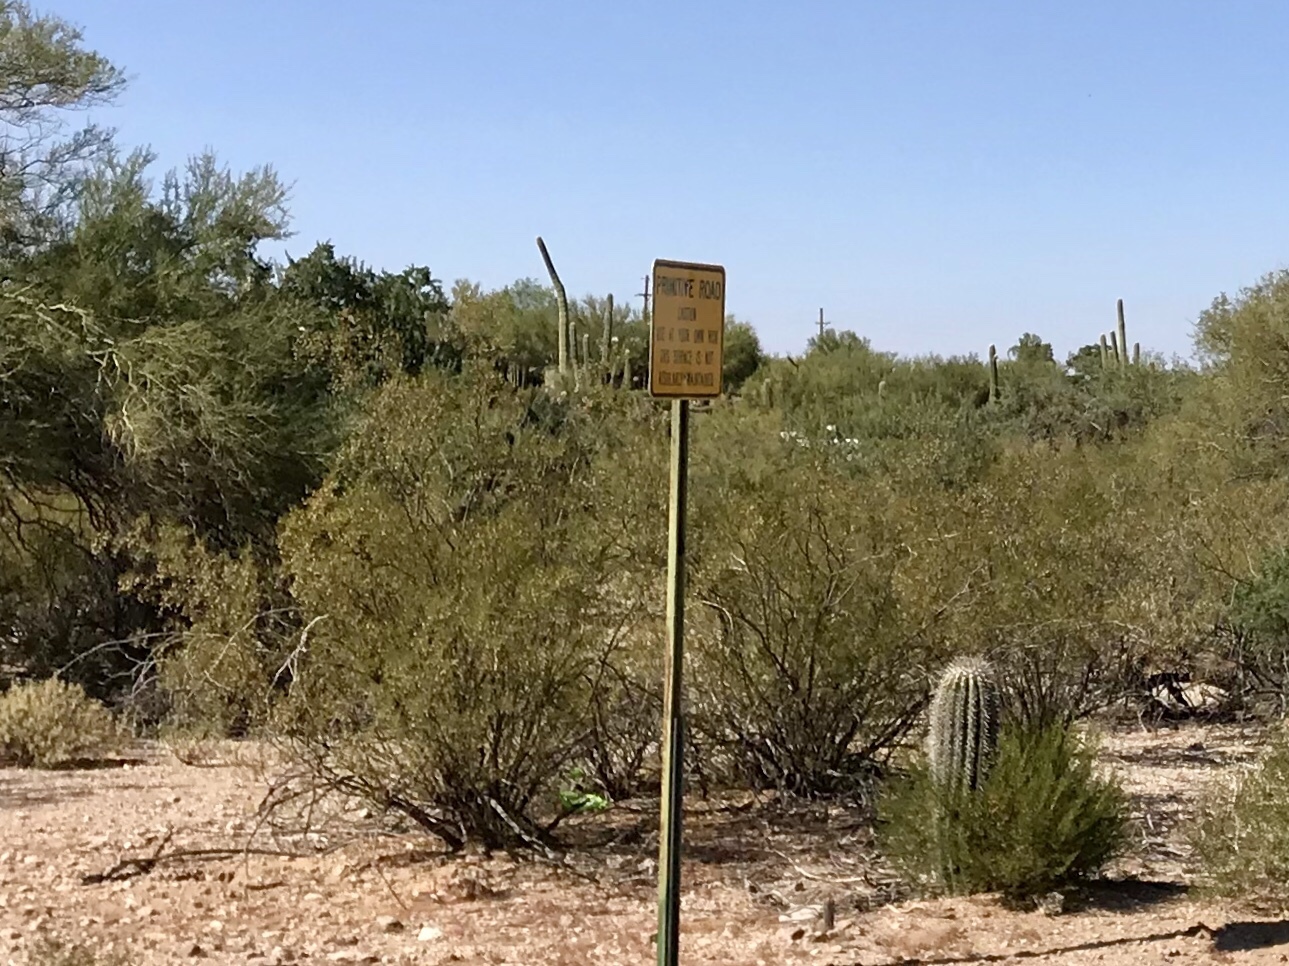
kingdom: Plantae
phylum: Tracheophyta
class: Magnoliopsida
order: Zygophyllales
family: Zygophyllaceae
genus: Larrea
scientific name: Larrea tridentata
